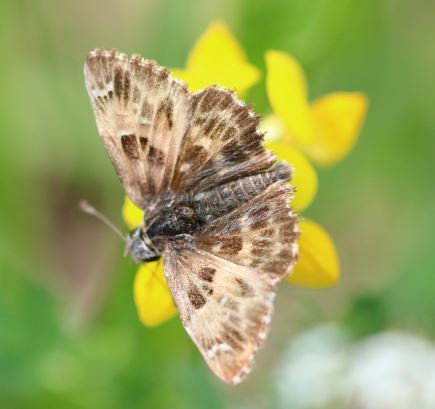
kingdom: Animalia
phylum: Arthropoda
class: Insecta
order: Lepidoptera
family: Hesperiidae
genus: Carcharodus
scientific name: Carcharodus alceae
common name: Mallow skipper
